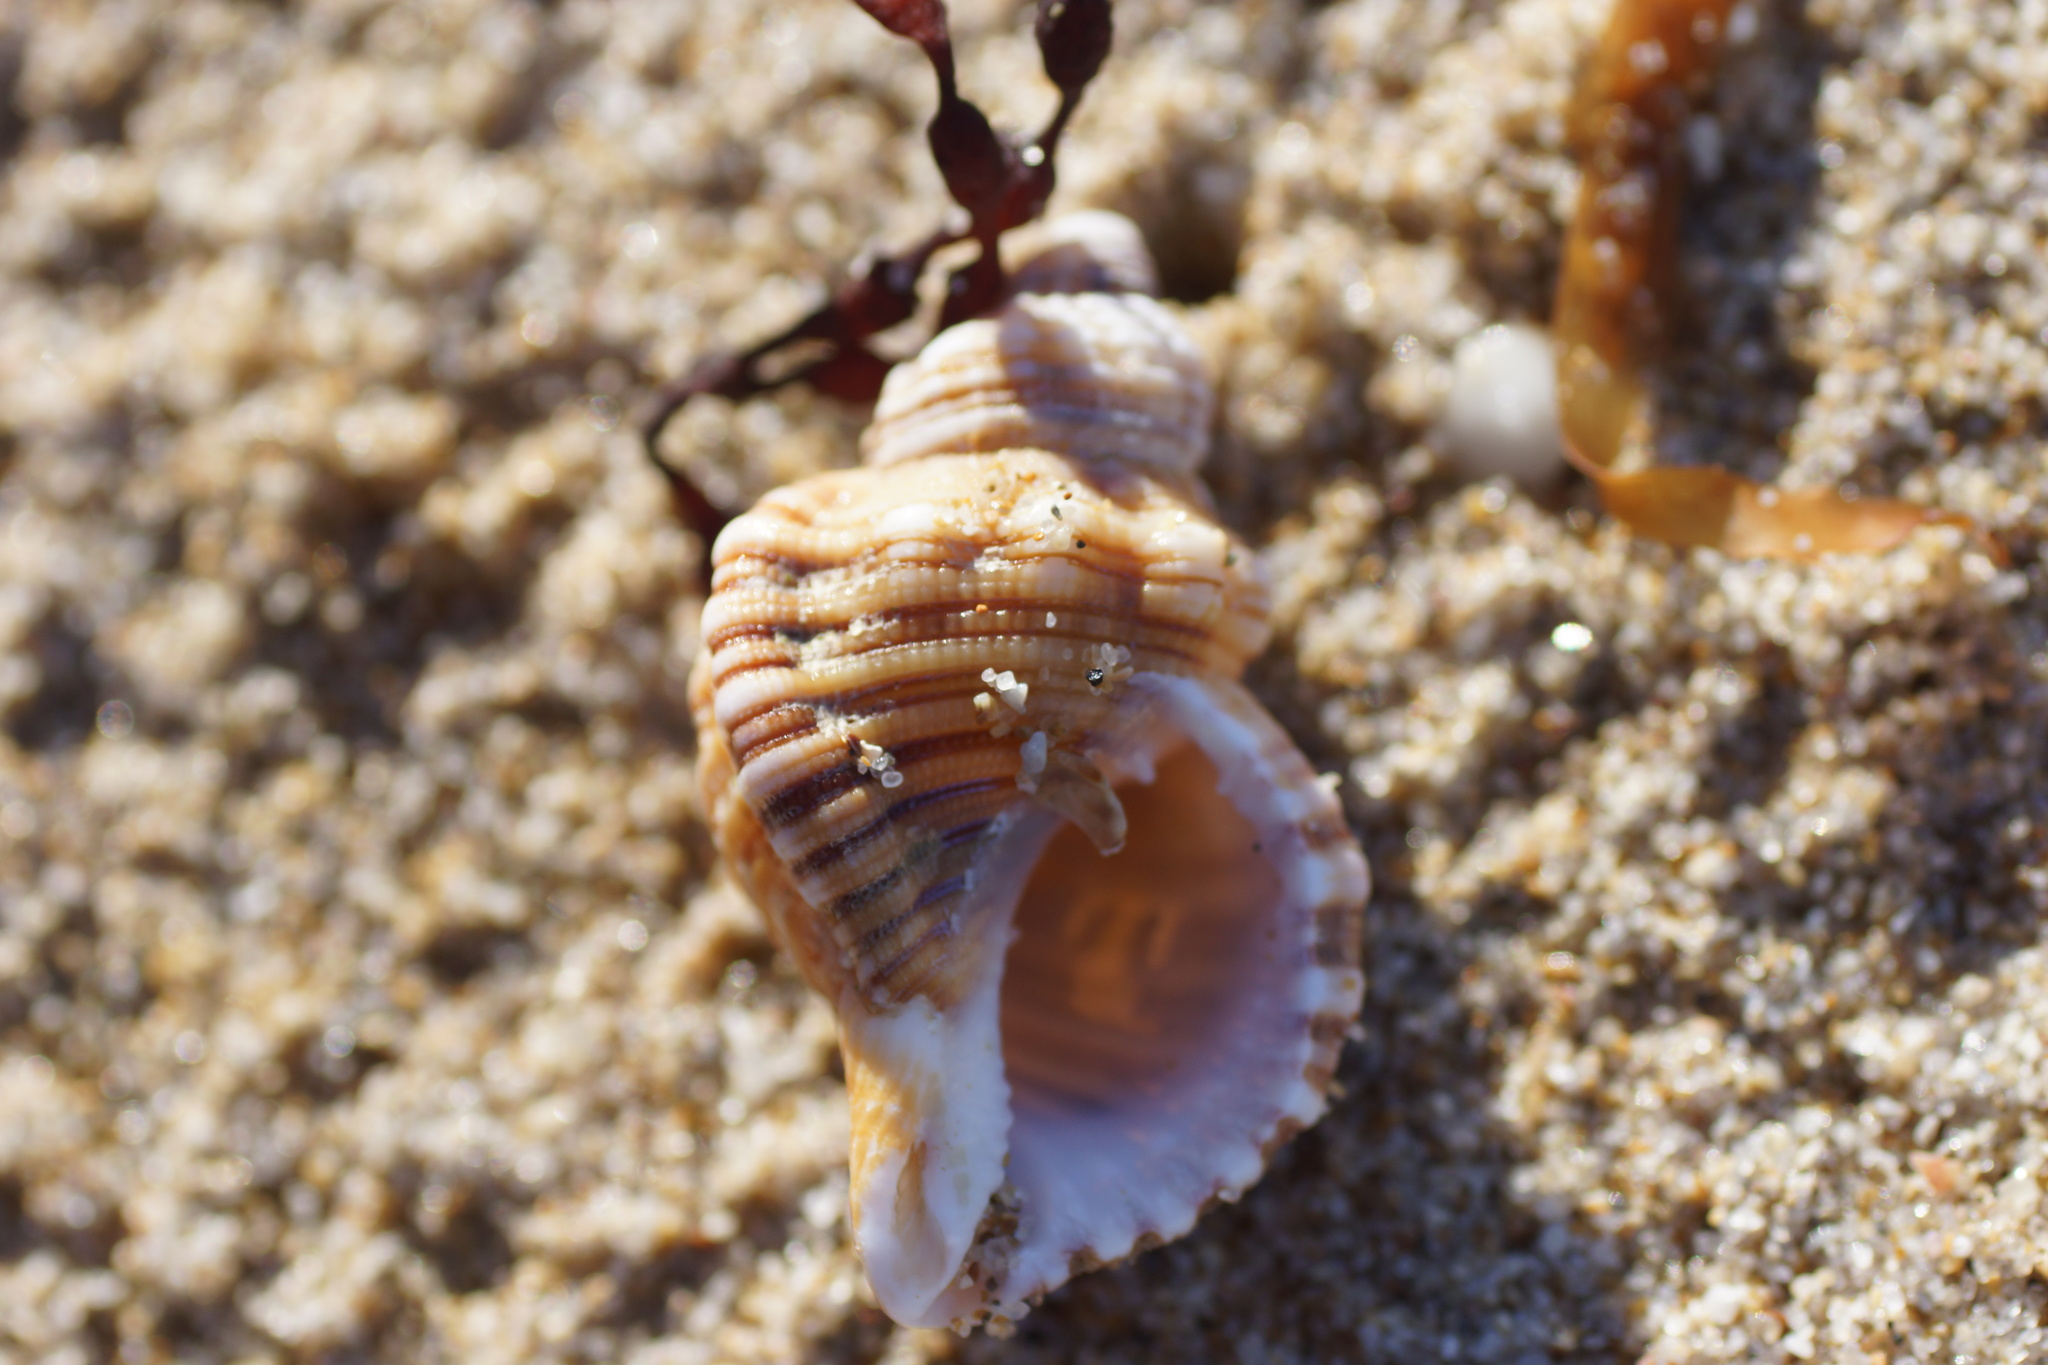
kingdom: Animalia
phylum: Mollusca
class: Gastropoda
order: Littorinimorpha
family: Cymatiidae
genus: Cabestana
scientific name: Cabestana spengleri
